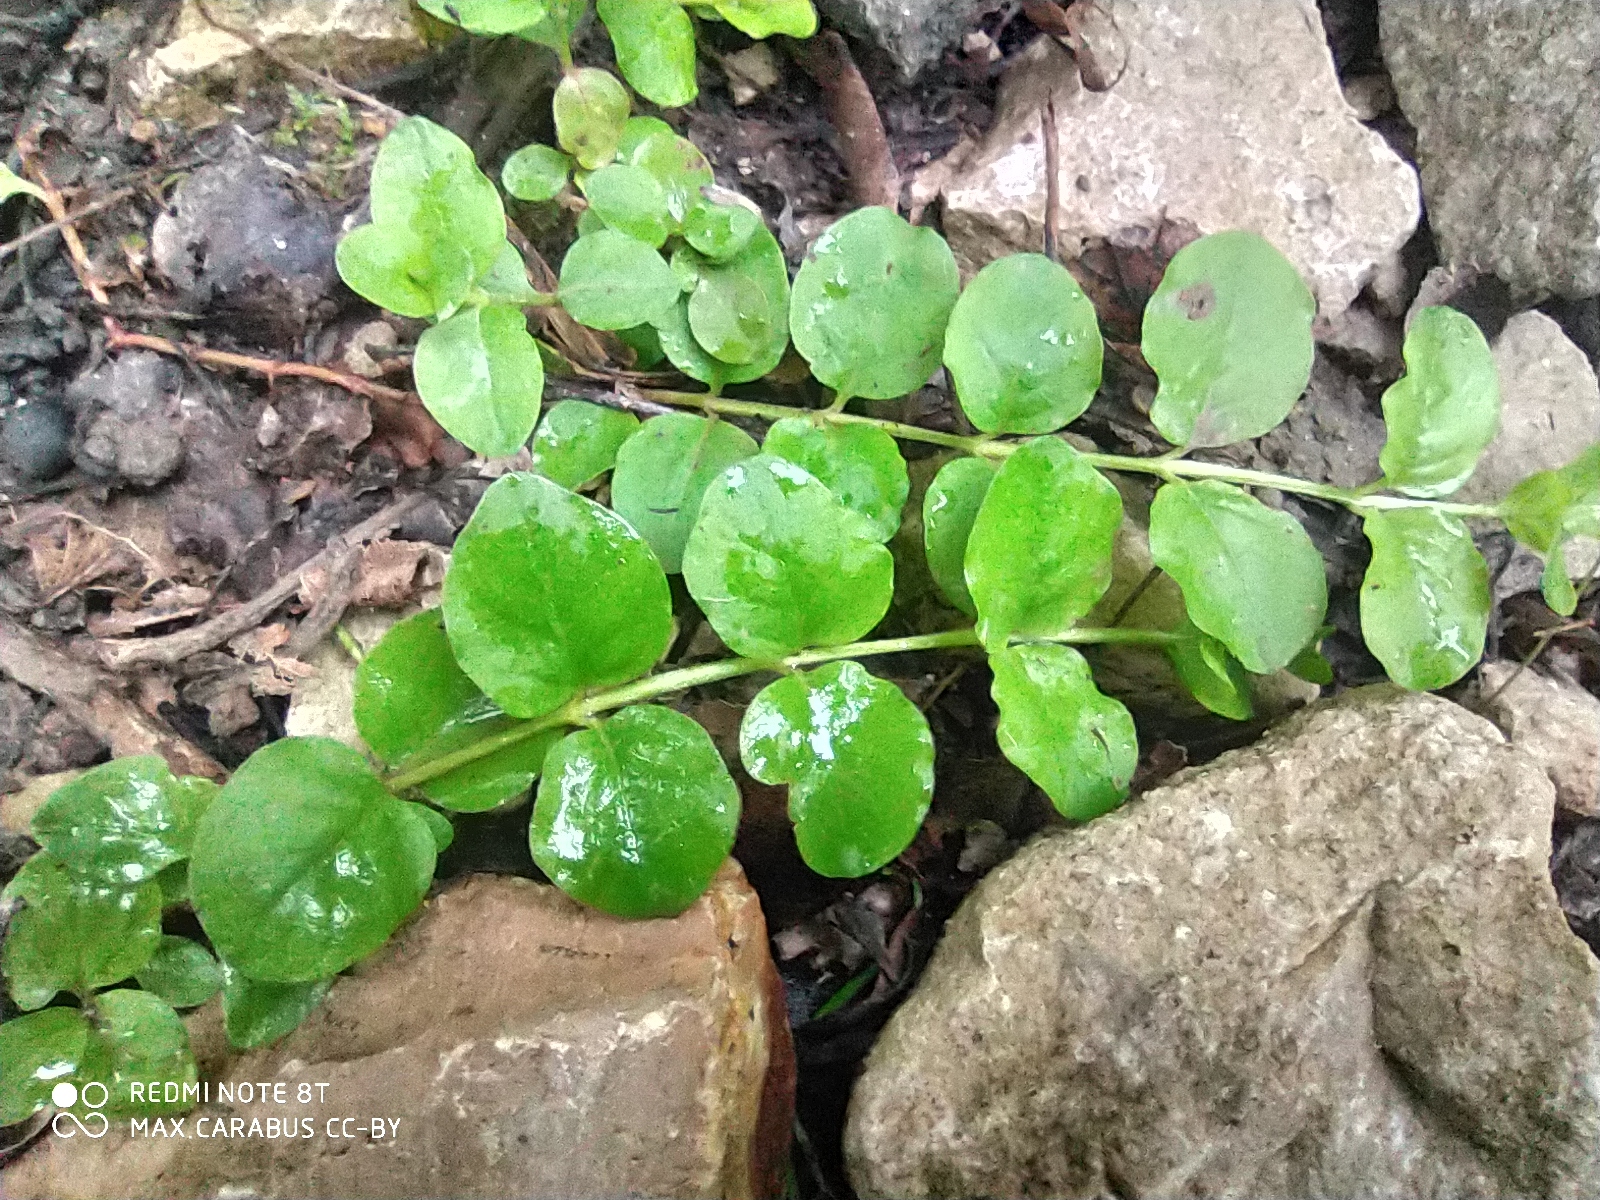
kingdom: Plantae
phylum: Tracheophyta
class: Magnoliopsida
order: Ericales
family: Primulaceae
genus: Lysimachia
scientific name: Lysimachia nummularia
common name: Moneywort
